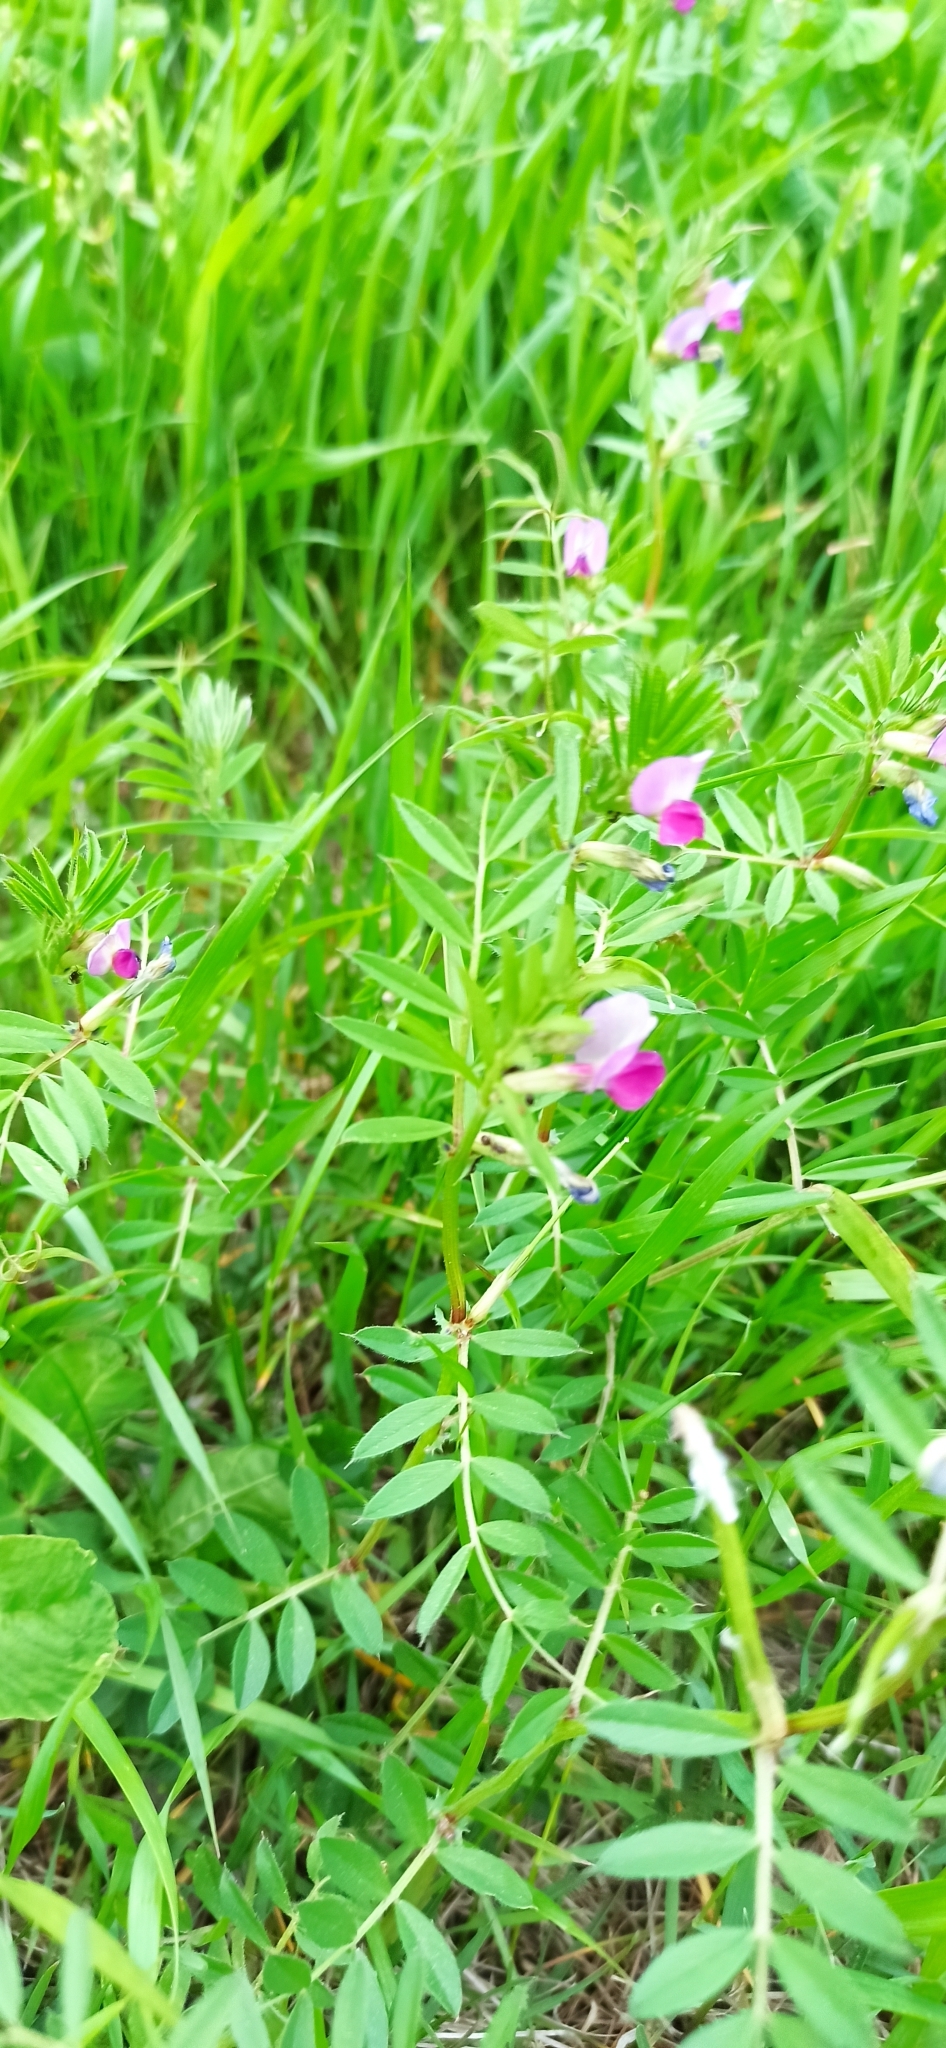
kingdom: Plantae
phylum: Tracheophyta
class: Magnoliopsida
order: Fabales
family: Fabaceae
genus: Vicia
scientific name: Vicia sativa
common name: Garden vetch
